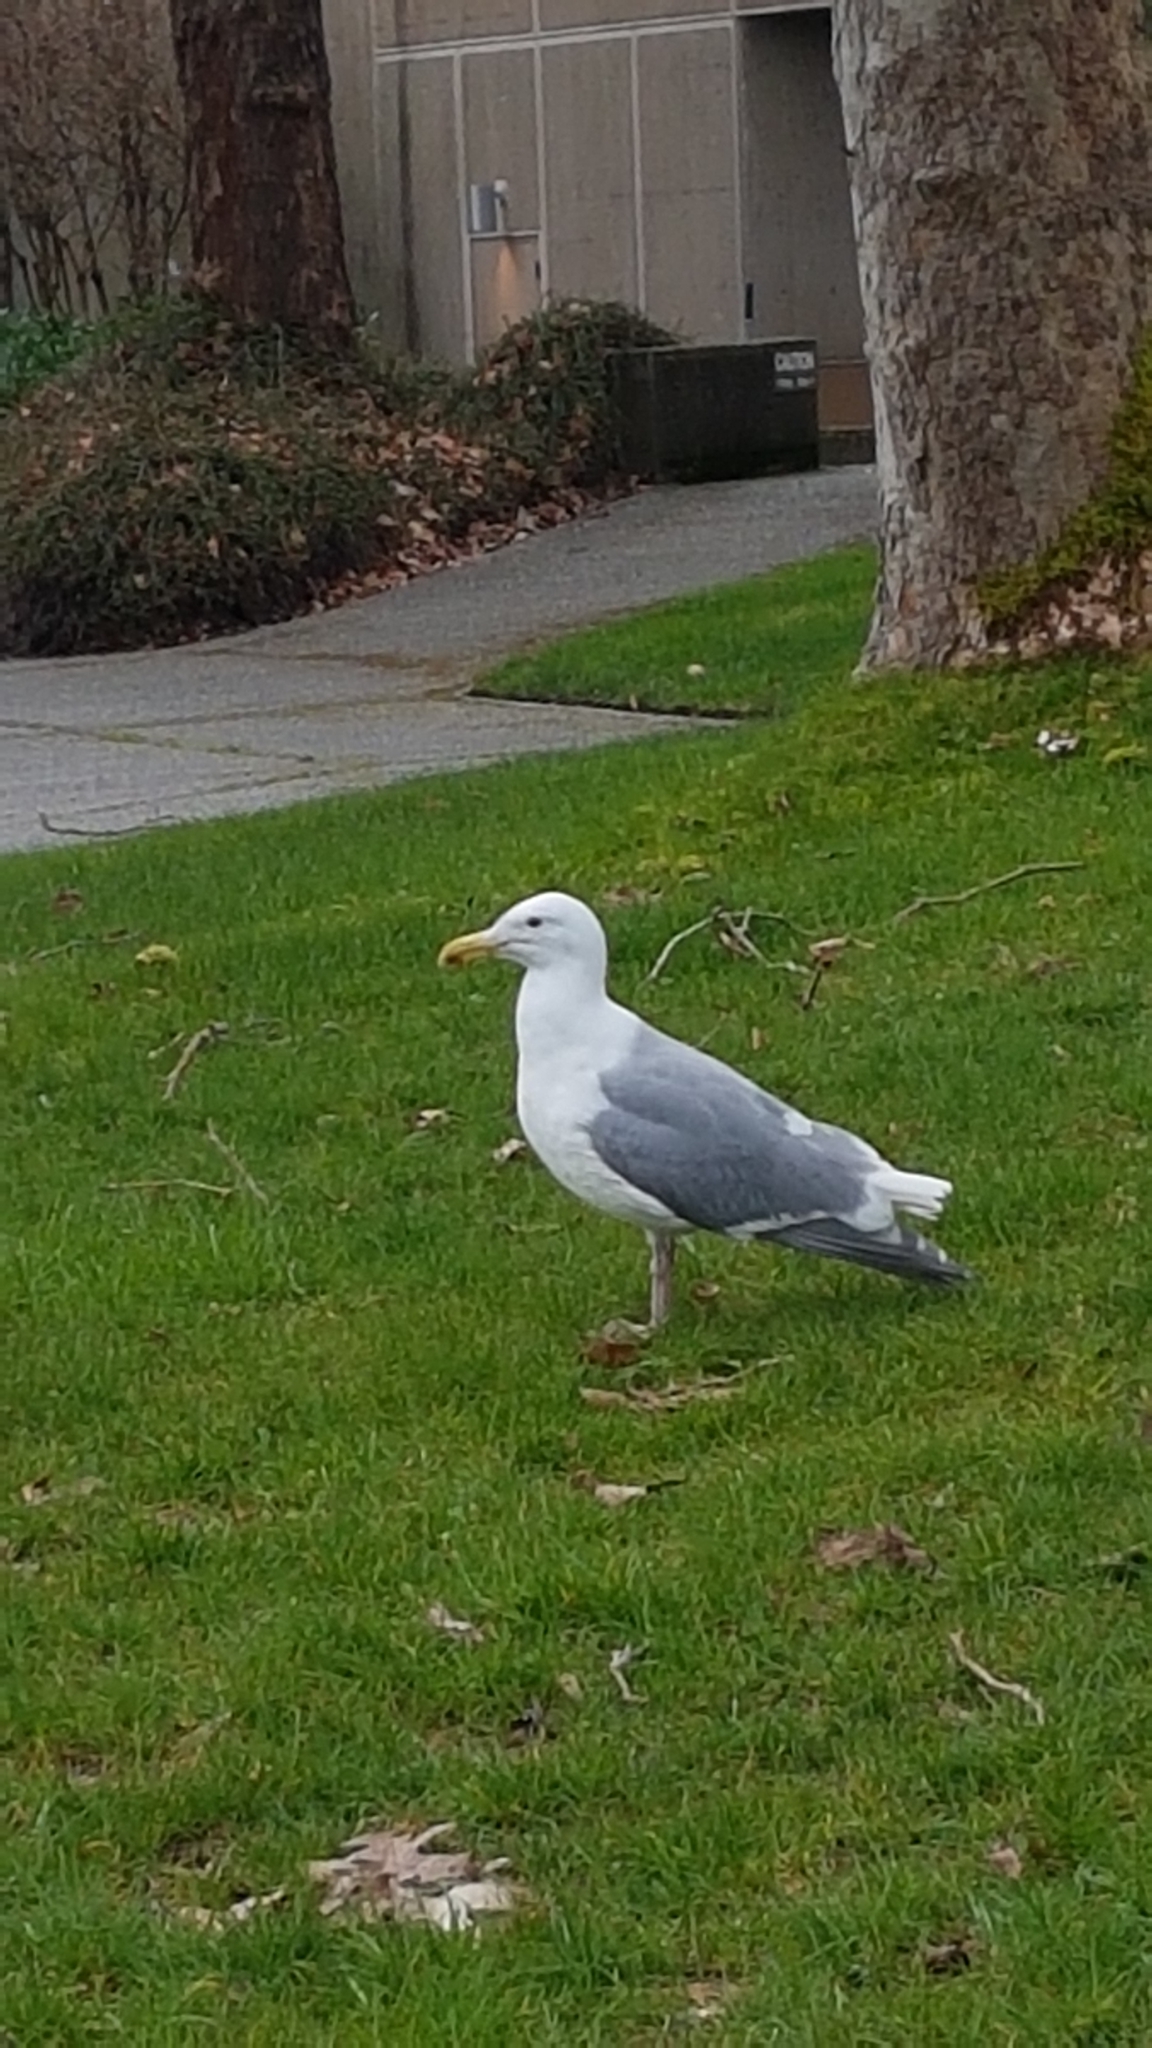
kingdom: Animalia
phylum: Chordata
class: Aves
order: Charadriiformes
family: Laridae
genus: Larus
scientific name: Larus glaucescens
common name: Glaucous-winged gull
